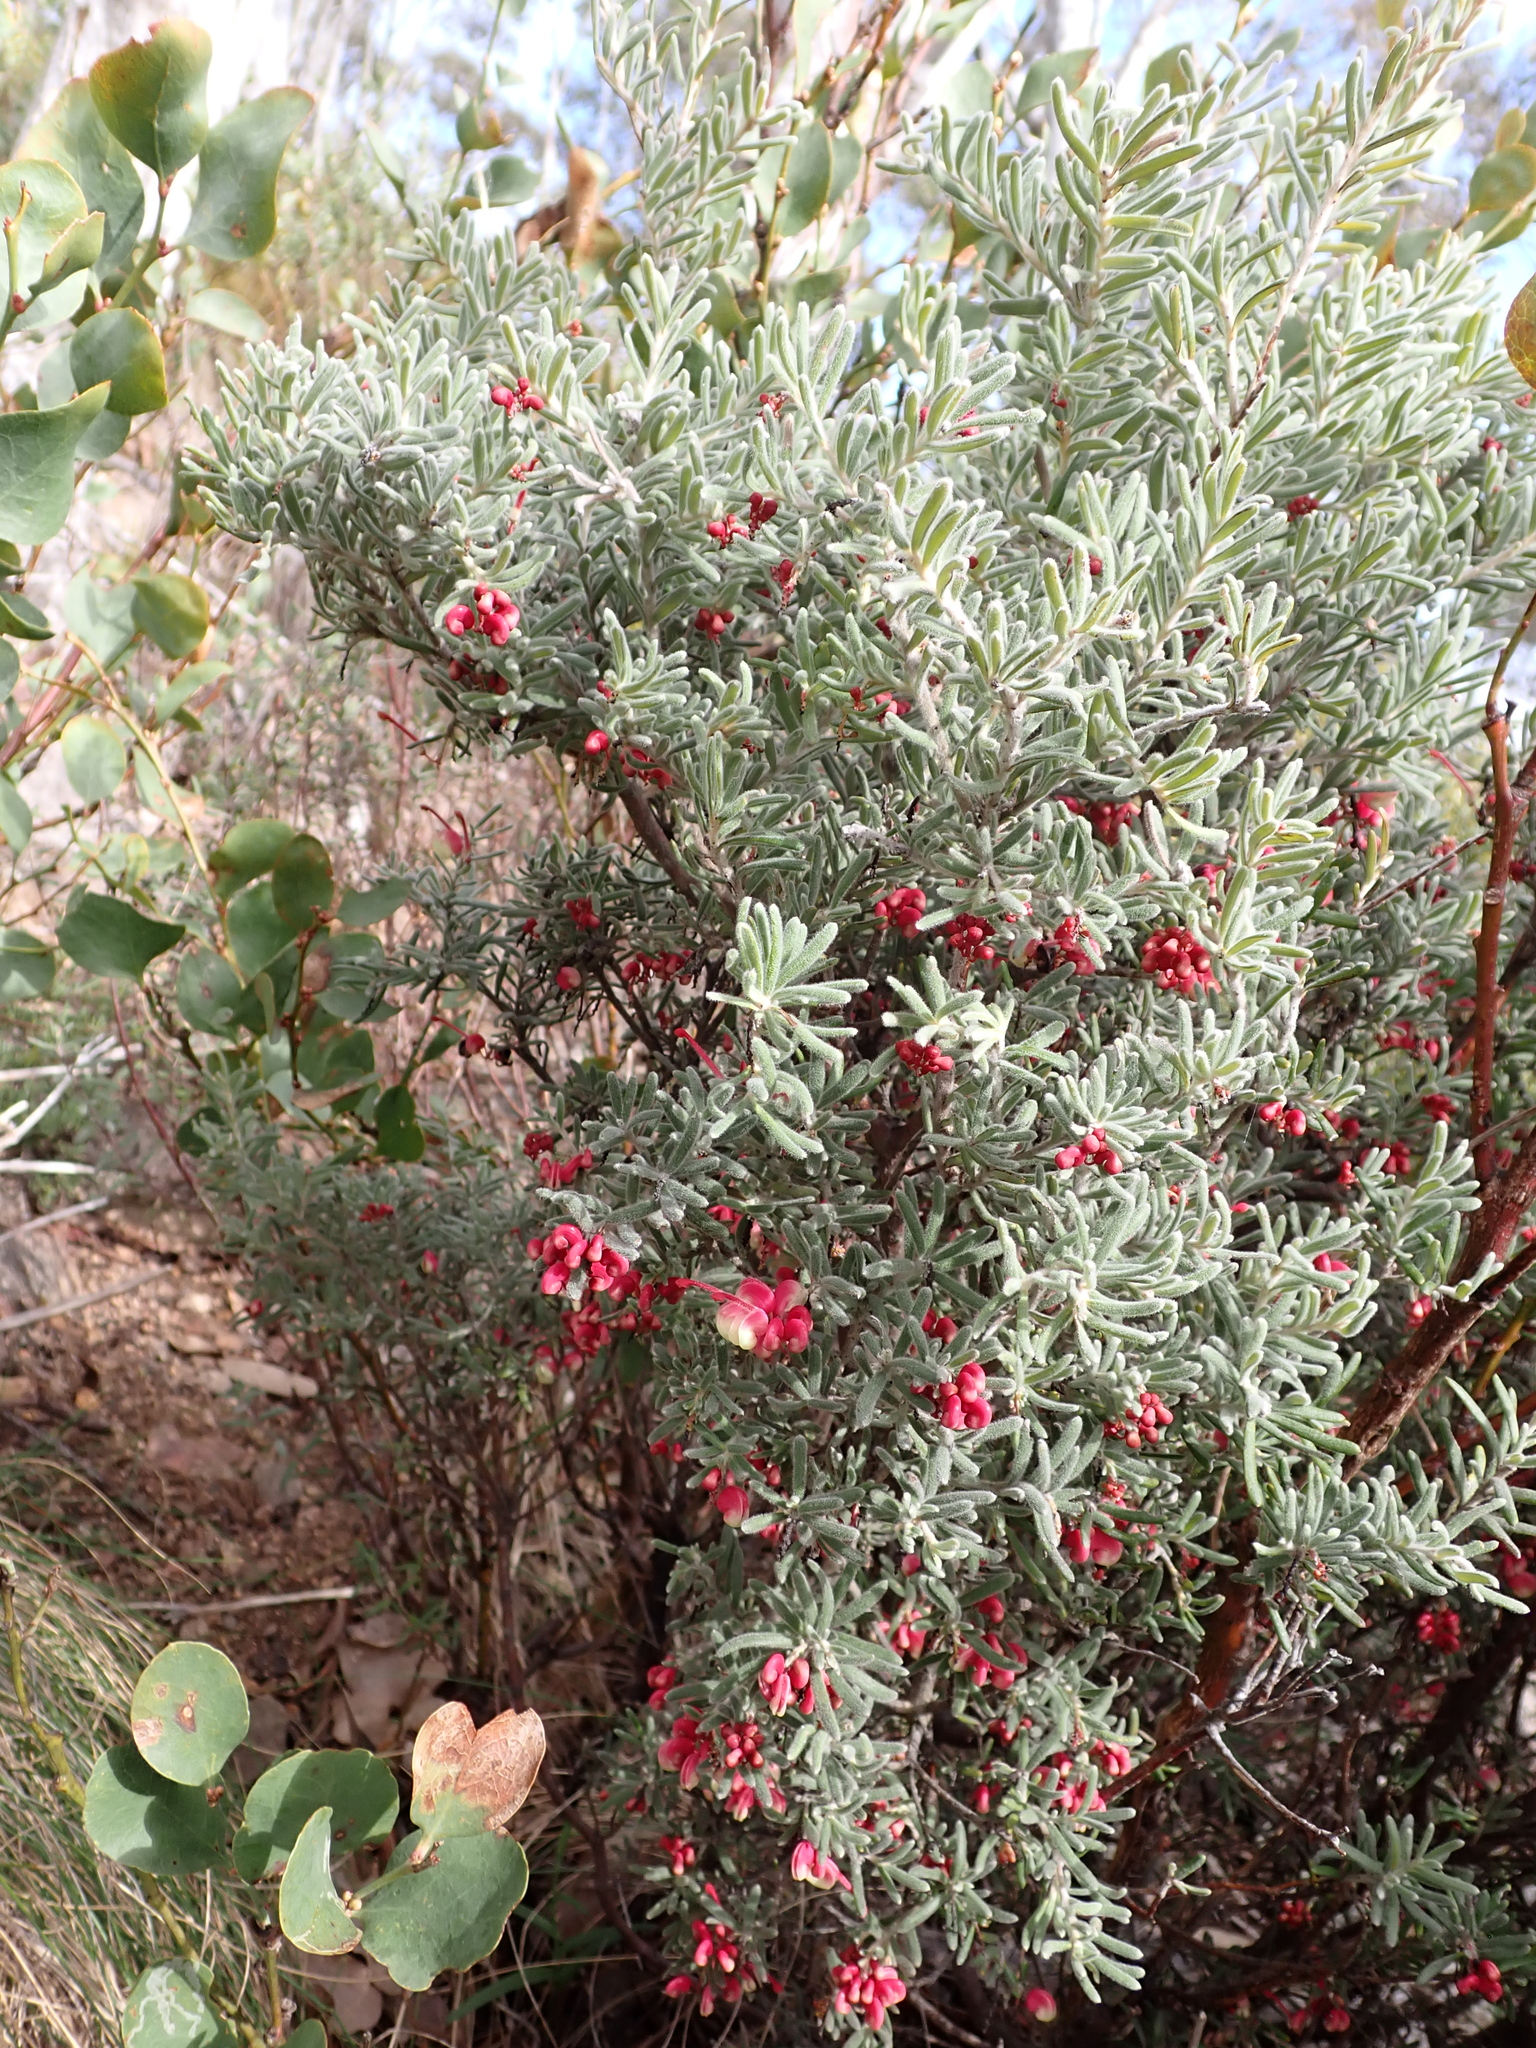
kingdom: Plantae
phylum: Tracheophyta
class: Magnoliopsida
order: Proteales
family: Proteaceae
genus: Grevillea
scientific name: Grevillea lanigera
